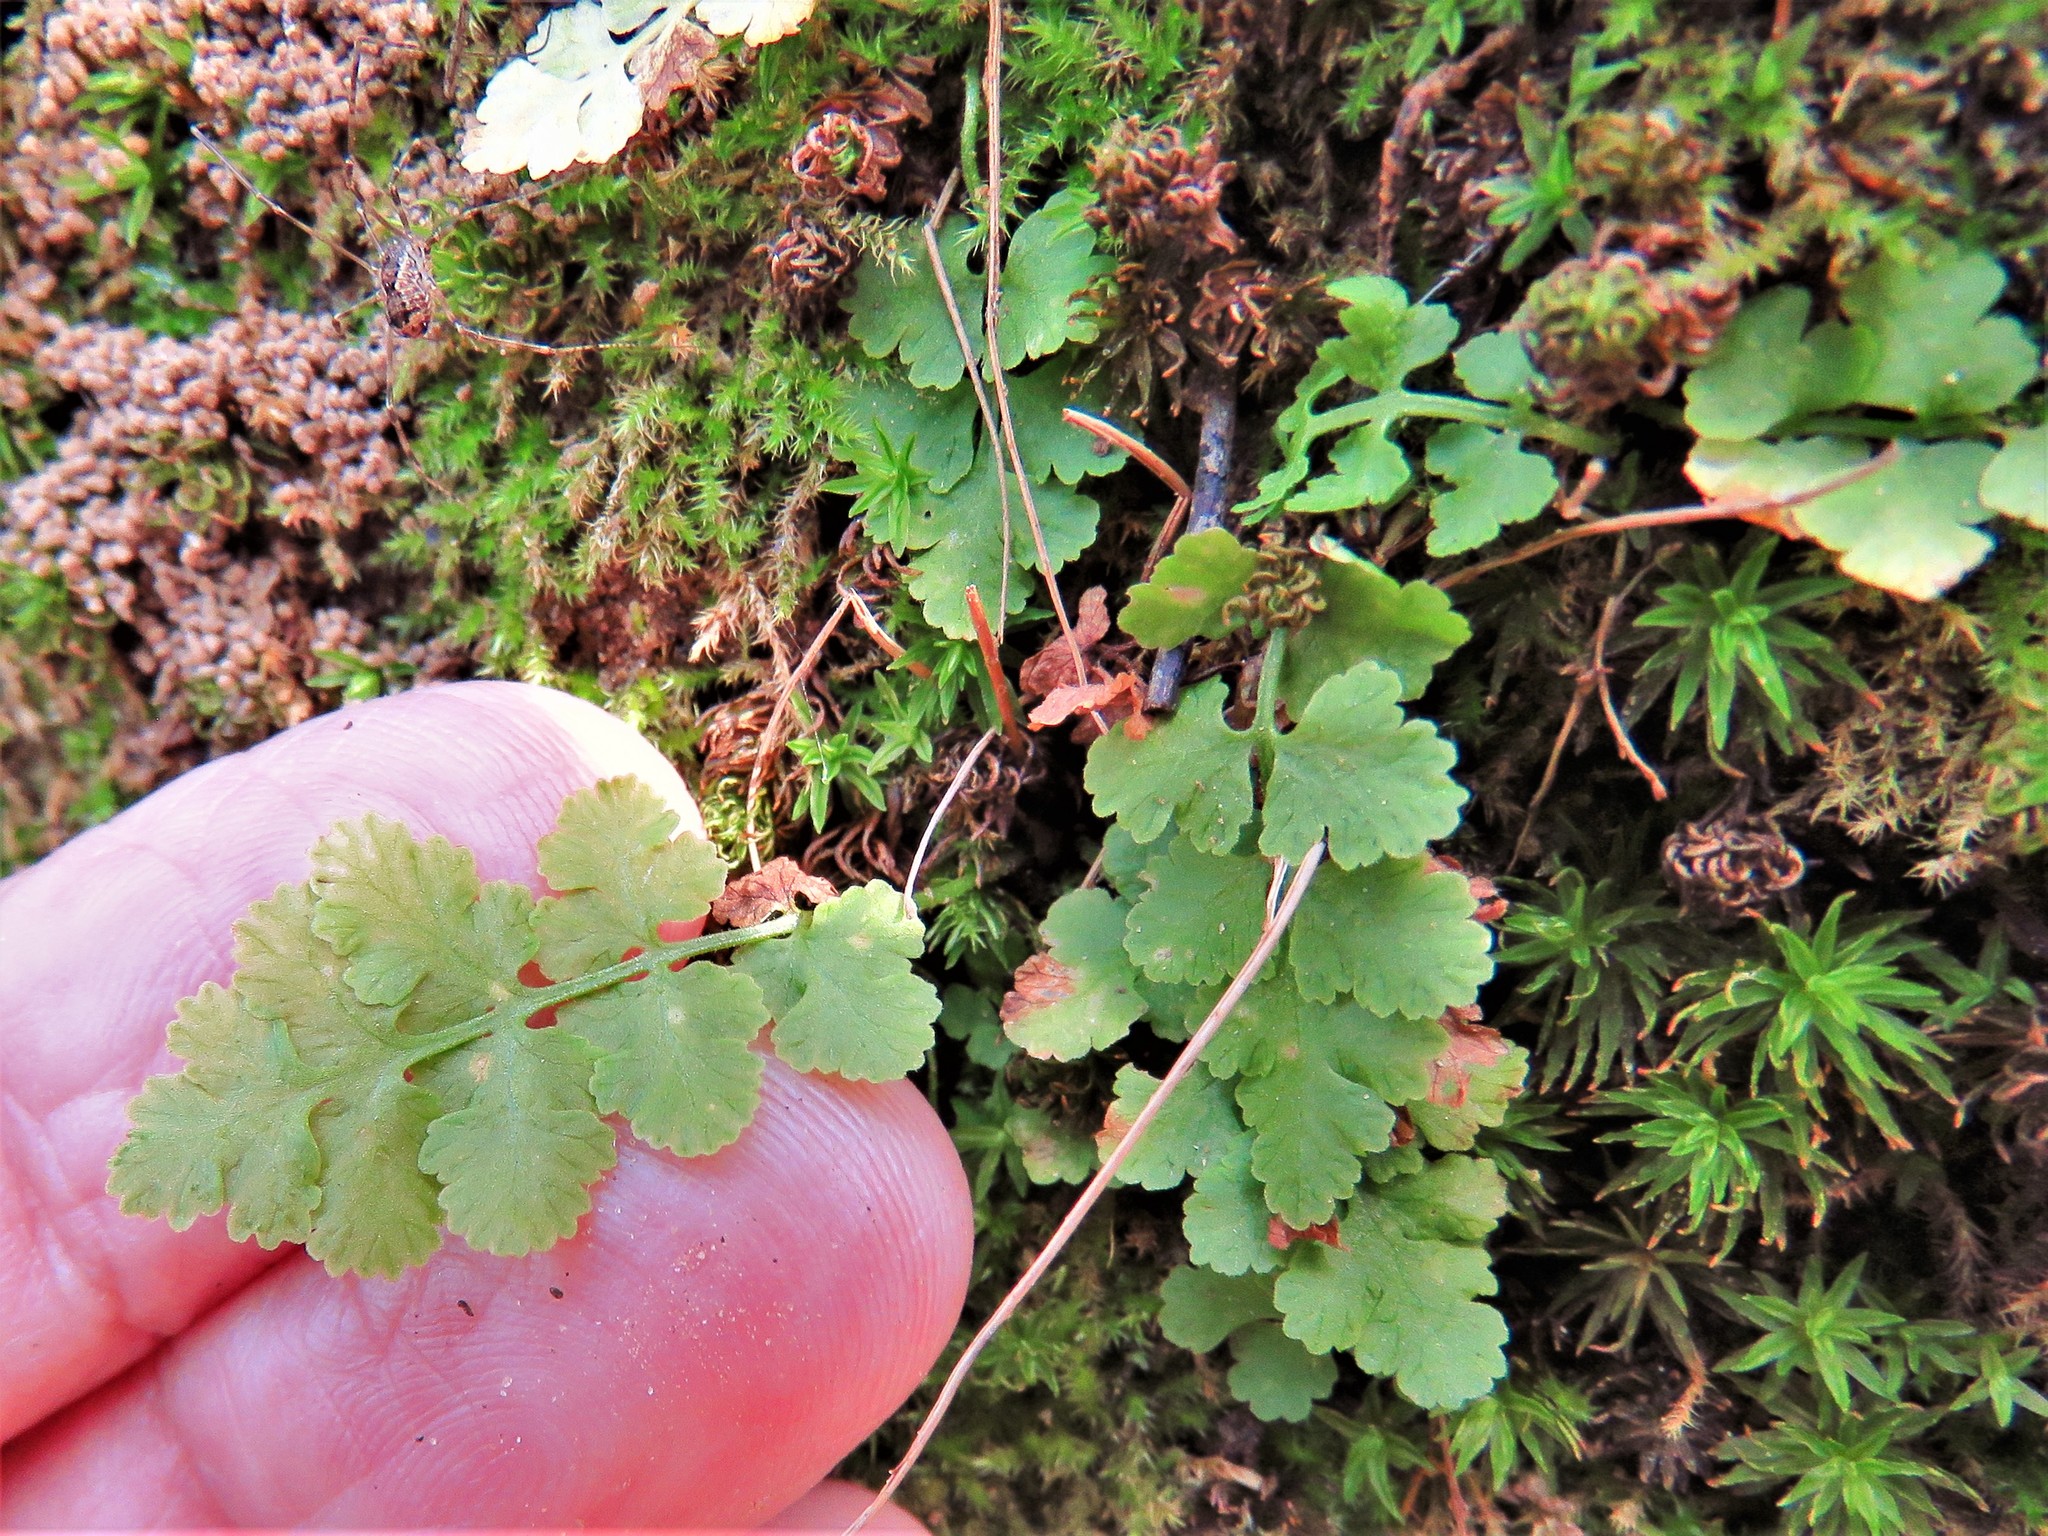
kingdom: Plantae
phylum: Tracheophyta
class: Polypodiopsida
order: Polypodiales
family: Woodsiaceae
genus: Physematium
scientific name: Physematium obtusum
